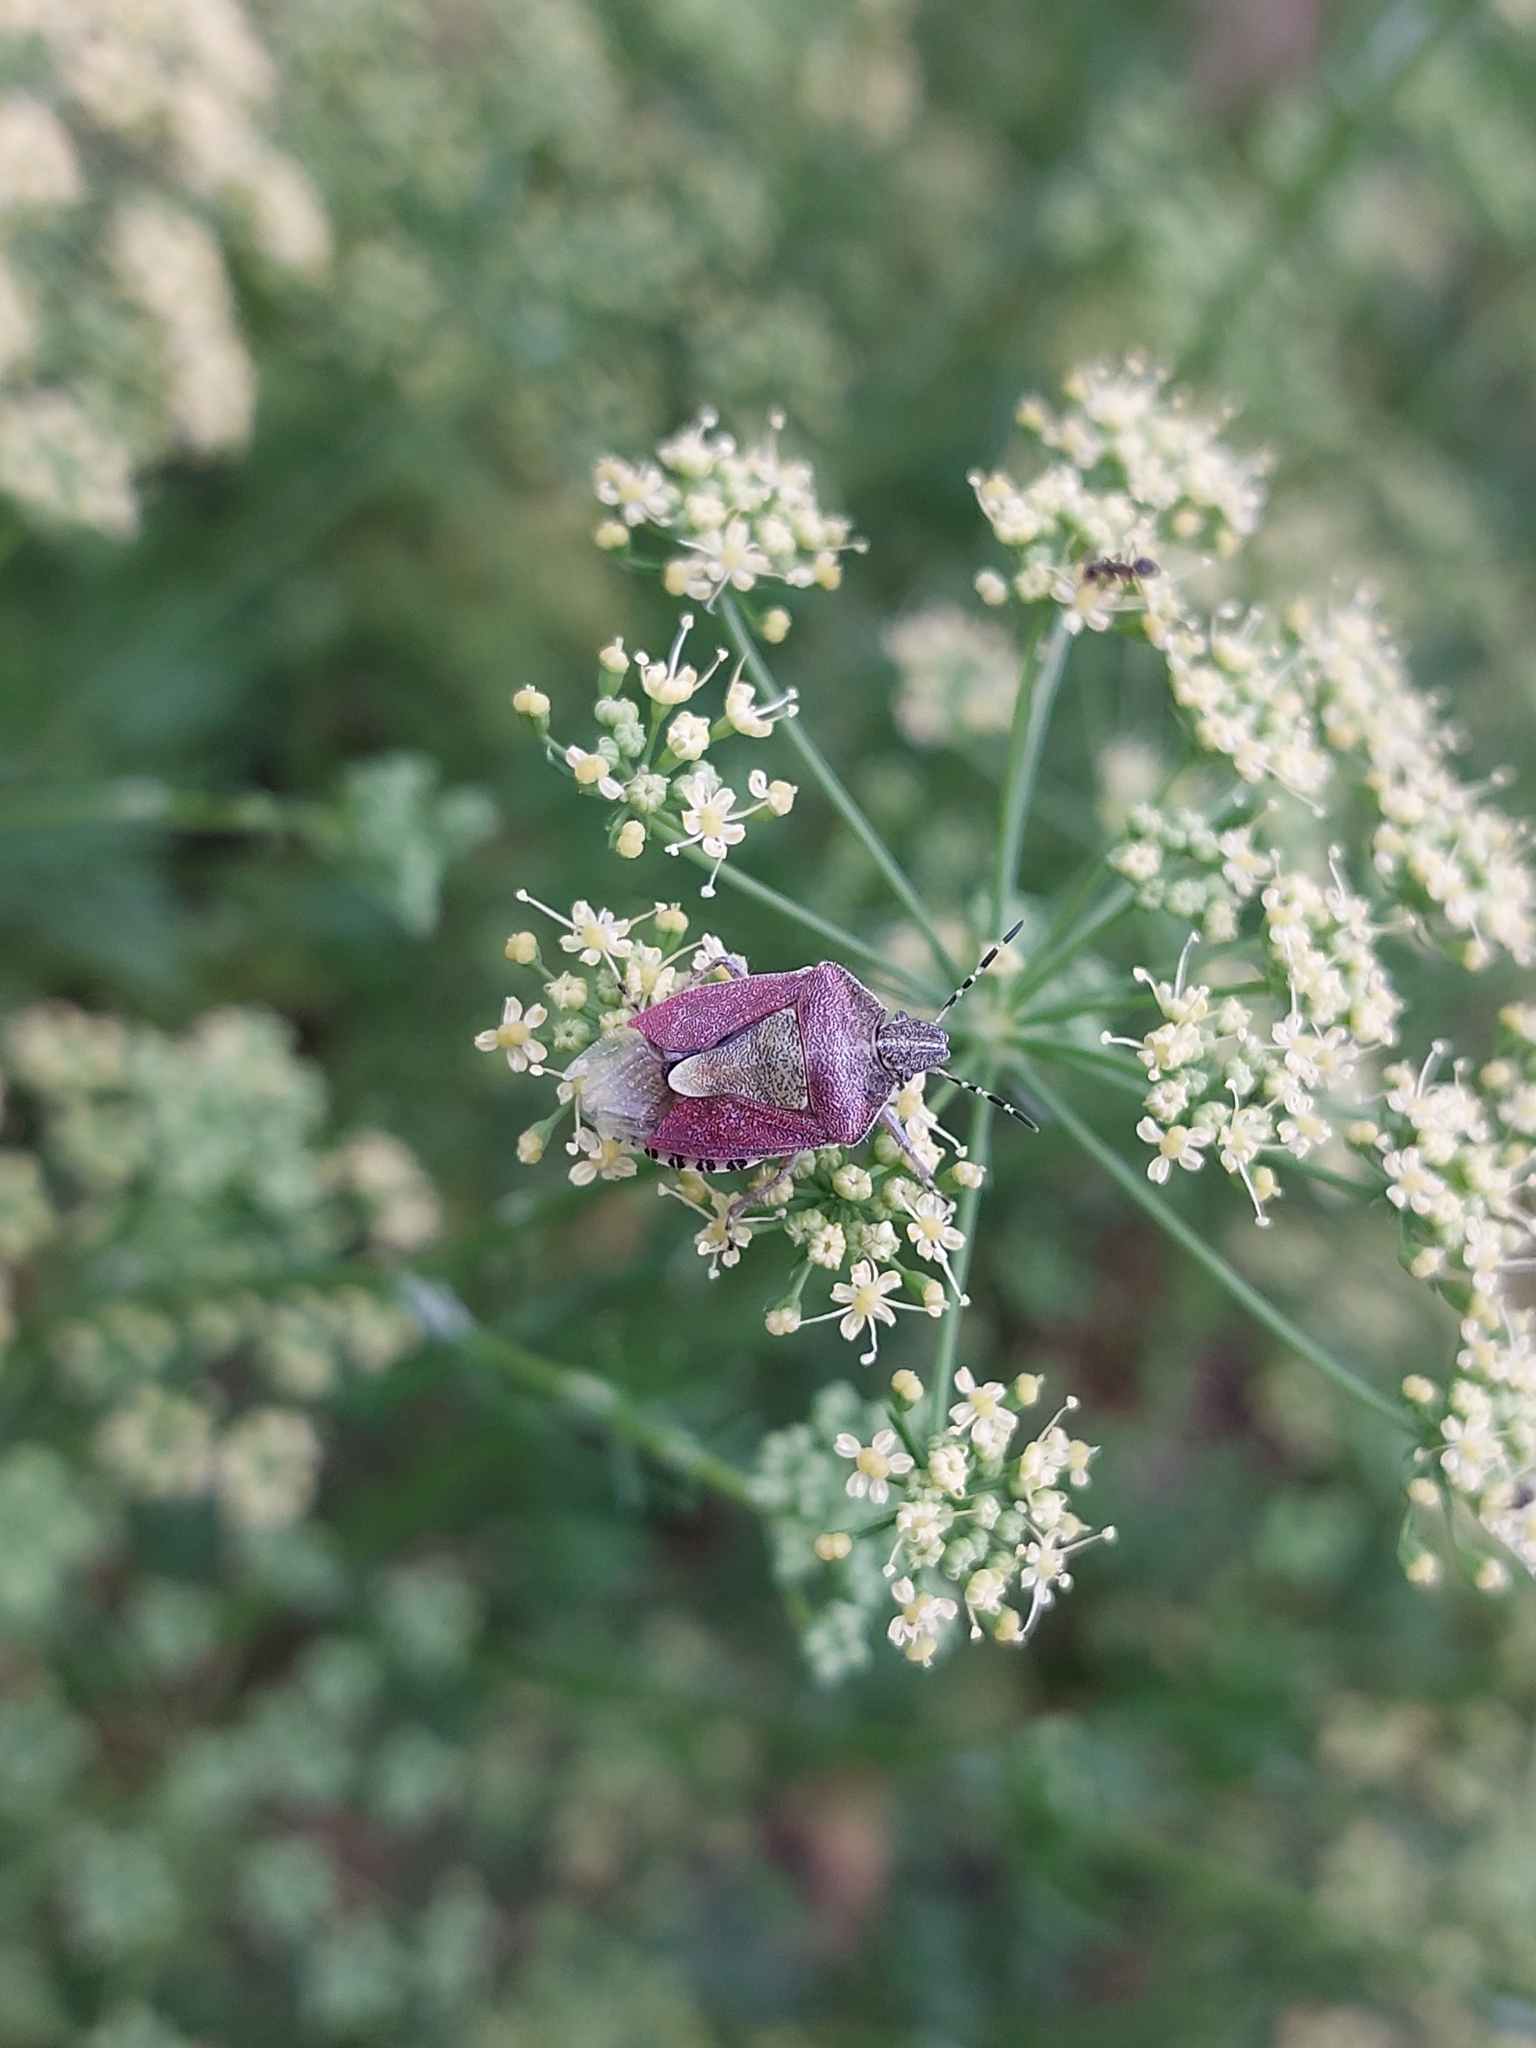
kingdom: Animalia
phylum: Arthropoda
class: Insecta
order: Hemiptera
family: Pentatomidae
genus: Dolycoris
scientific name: Dolycoris baccarum
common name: Sloe bug
